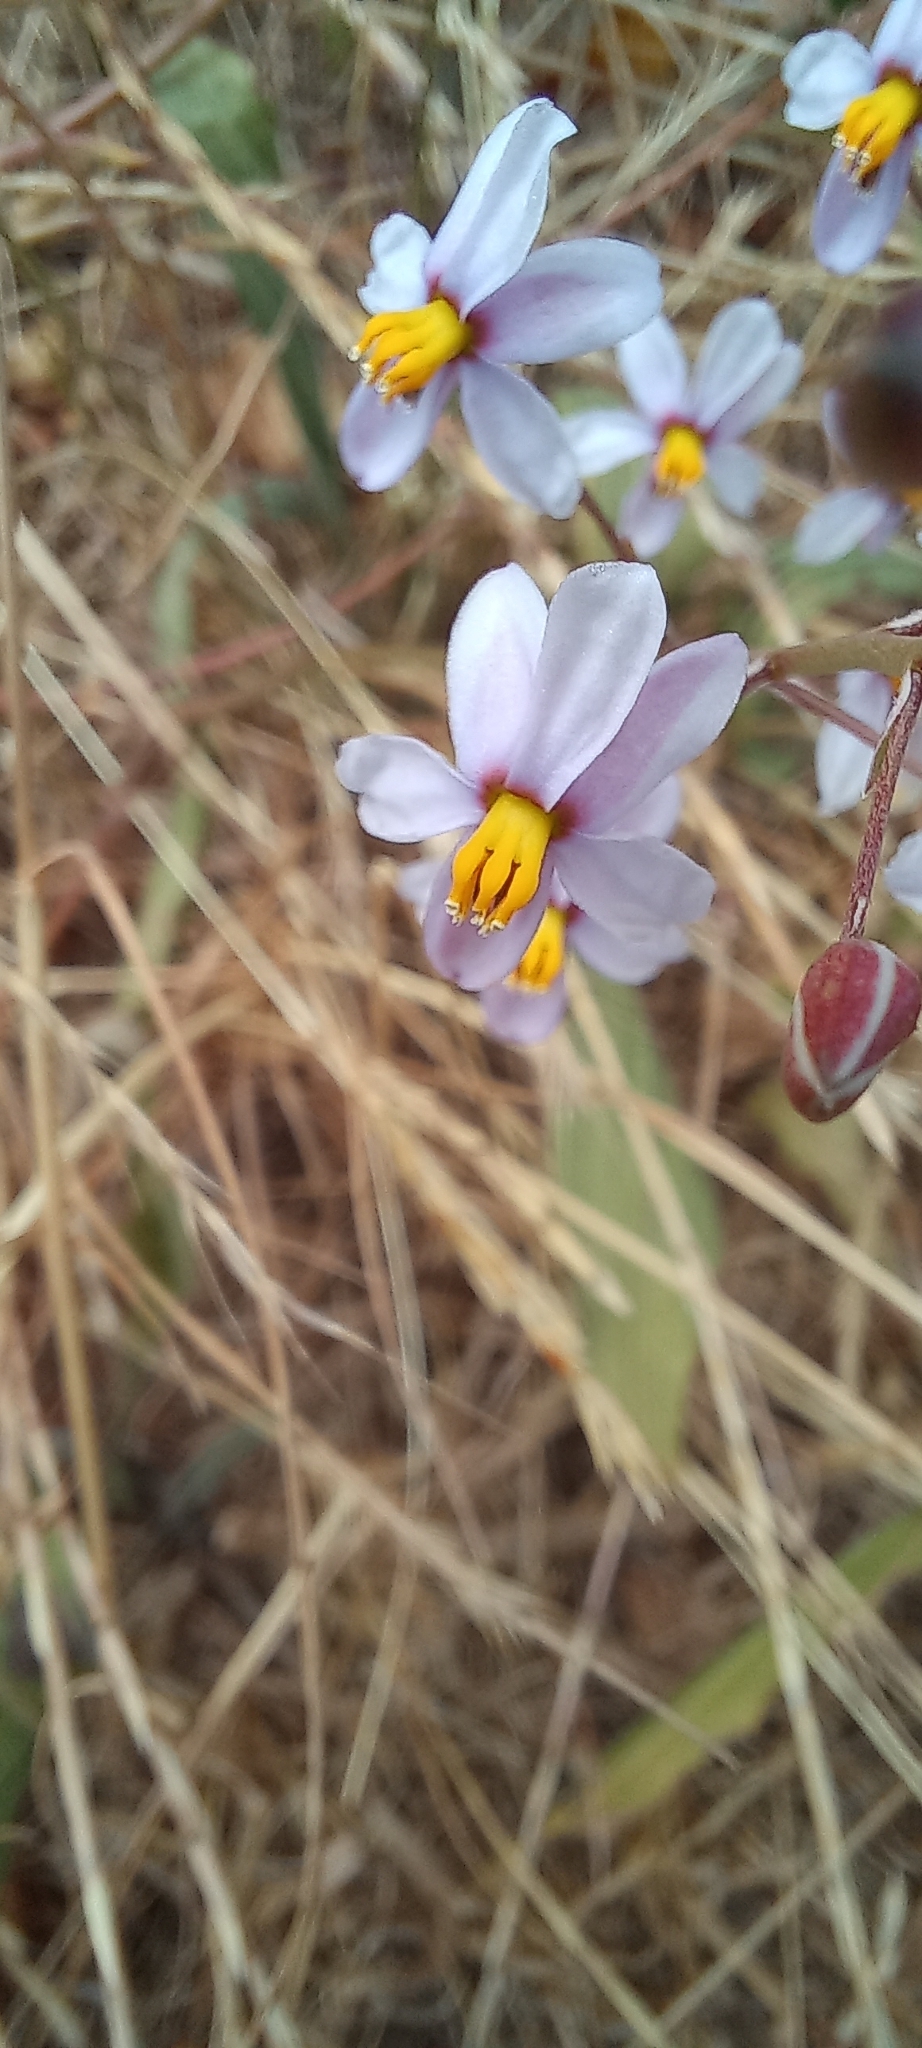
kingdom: Plantae
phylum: Tracheophyta
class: Liliopsida
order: Asparagales
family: Tecophilaeaceae
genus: Cyanella
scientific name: Cyanella hyacinthoides
